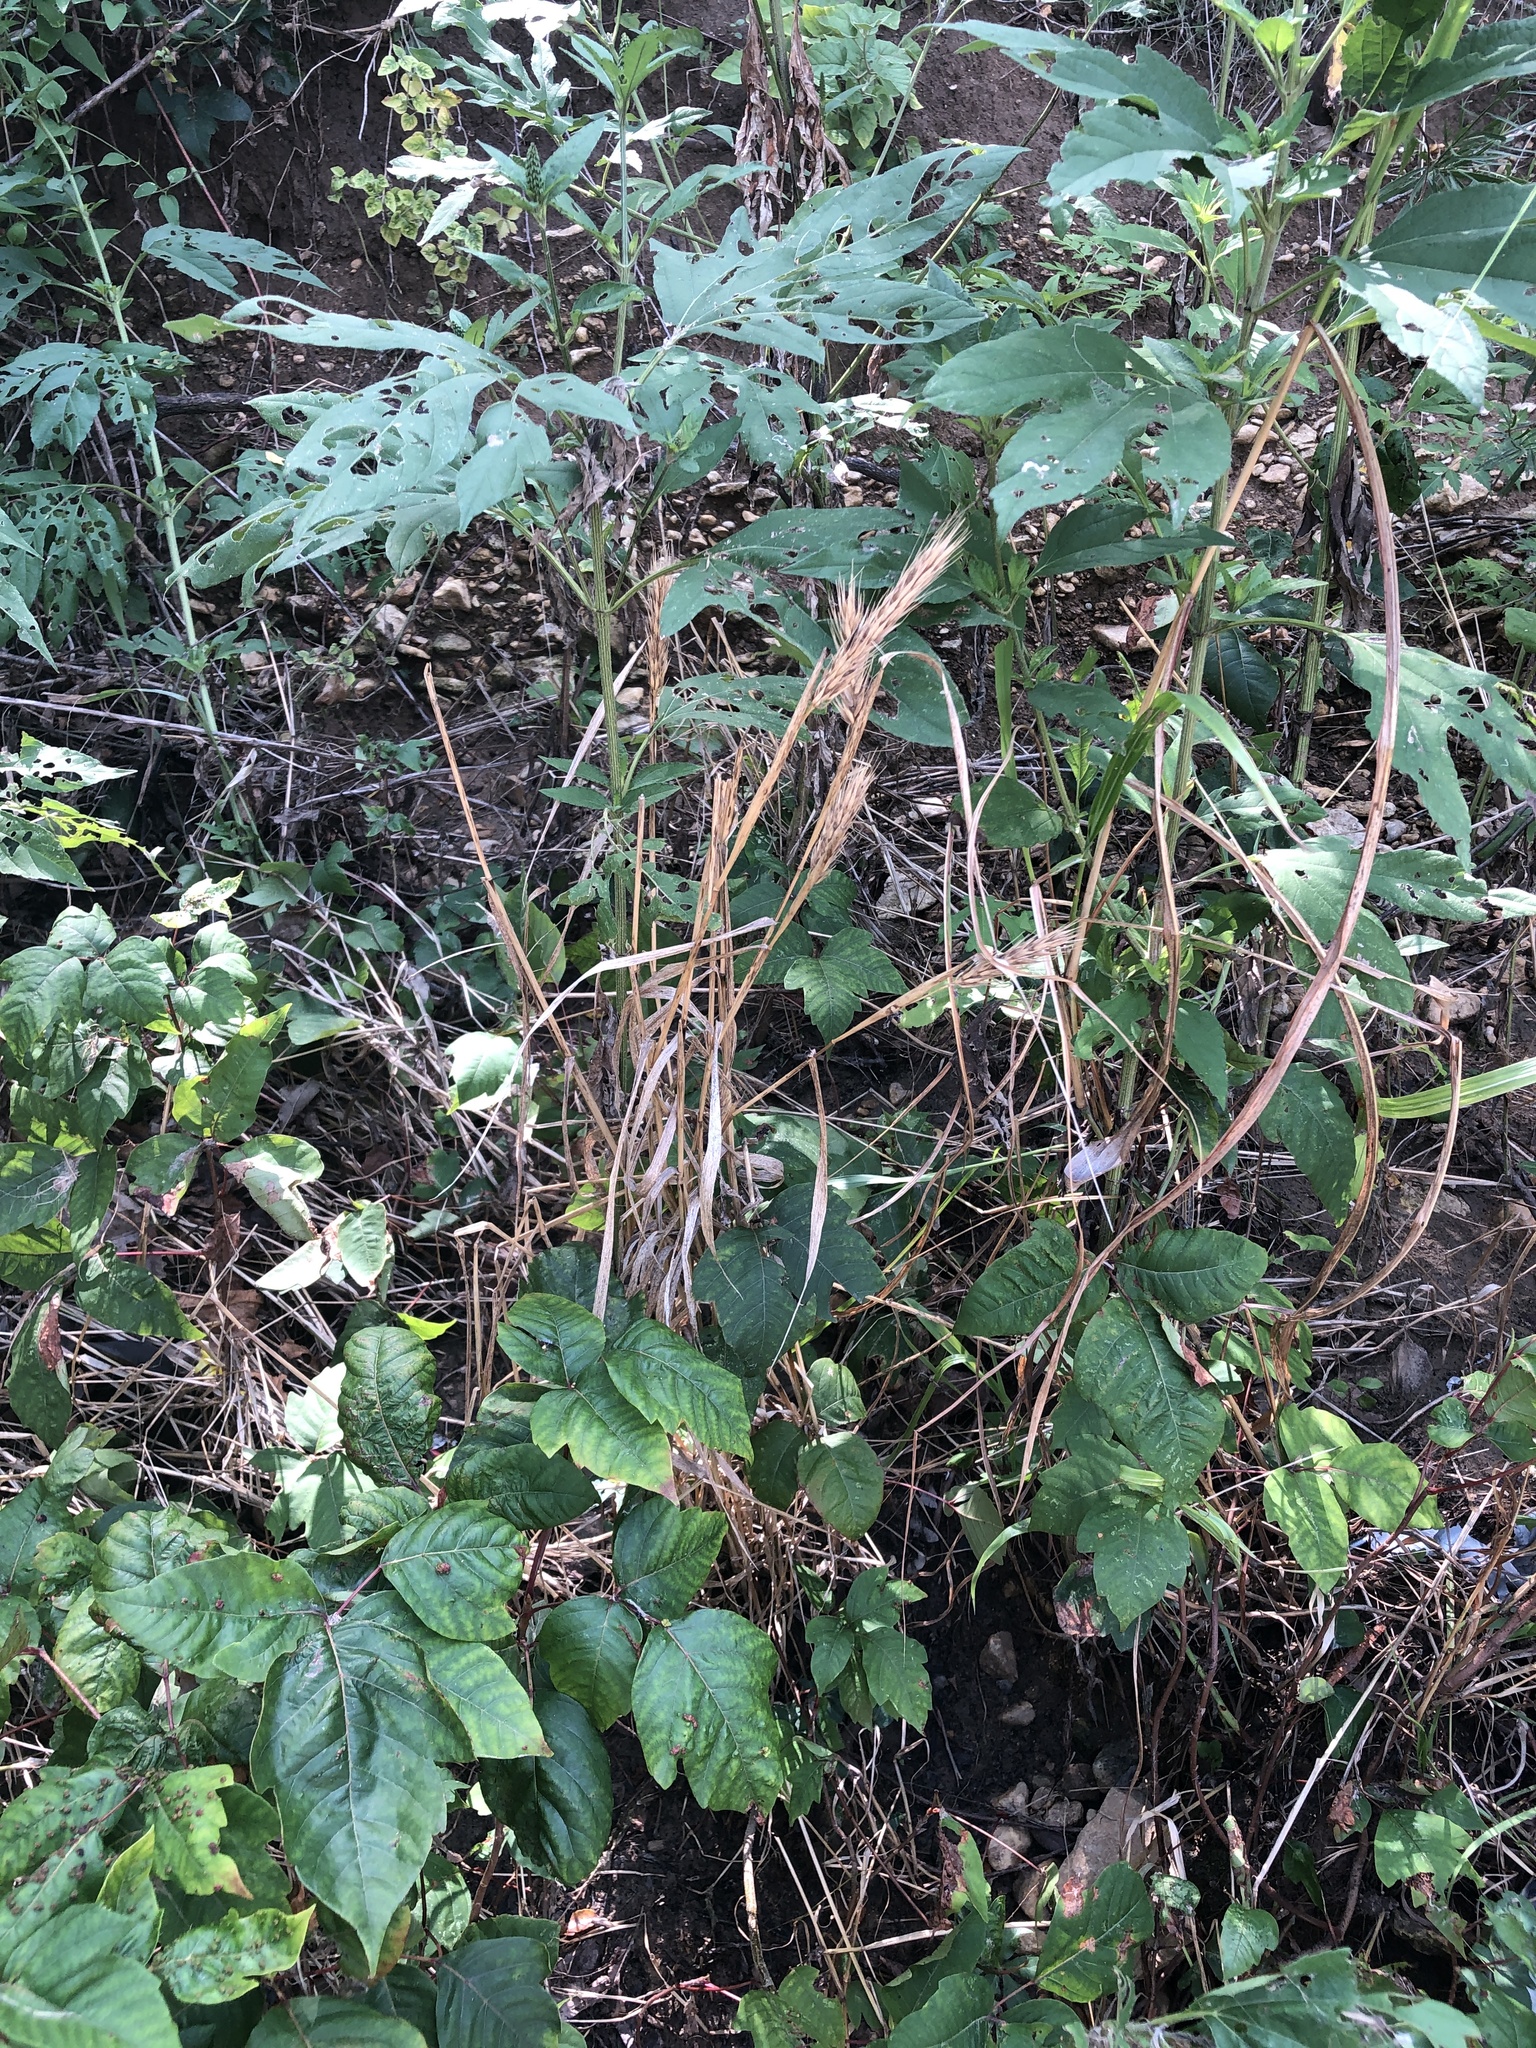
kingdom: Plantae
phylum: Tracheophyta
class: Liliopsida
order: Poales
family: Poaceae
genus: Elymus
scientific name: Elymus virginicus
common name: Common eastern wildrye
